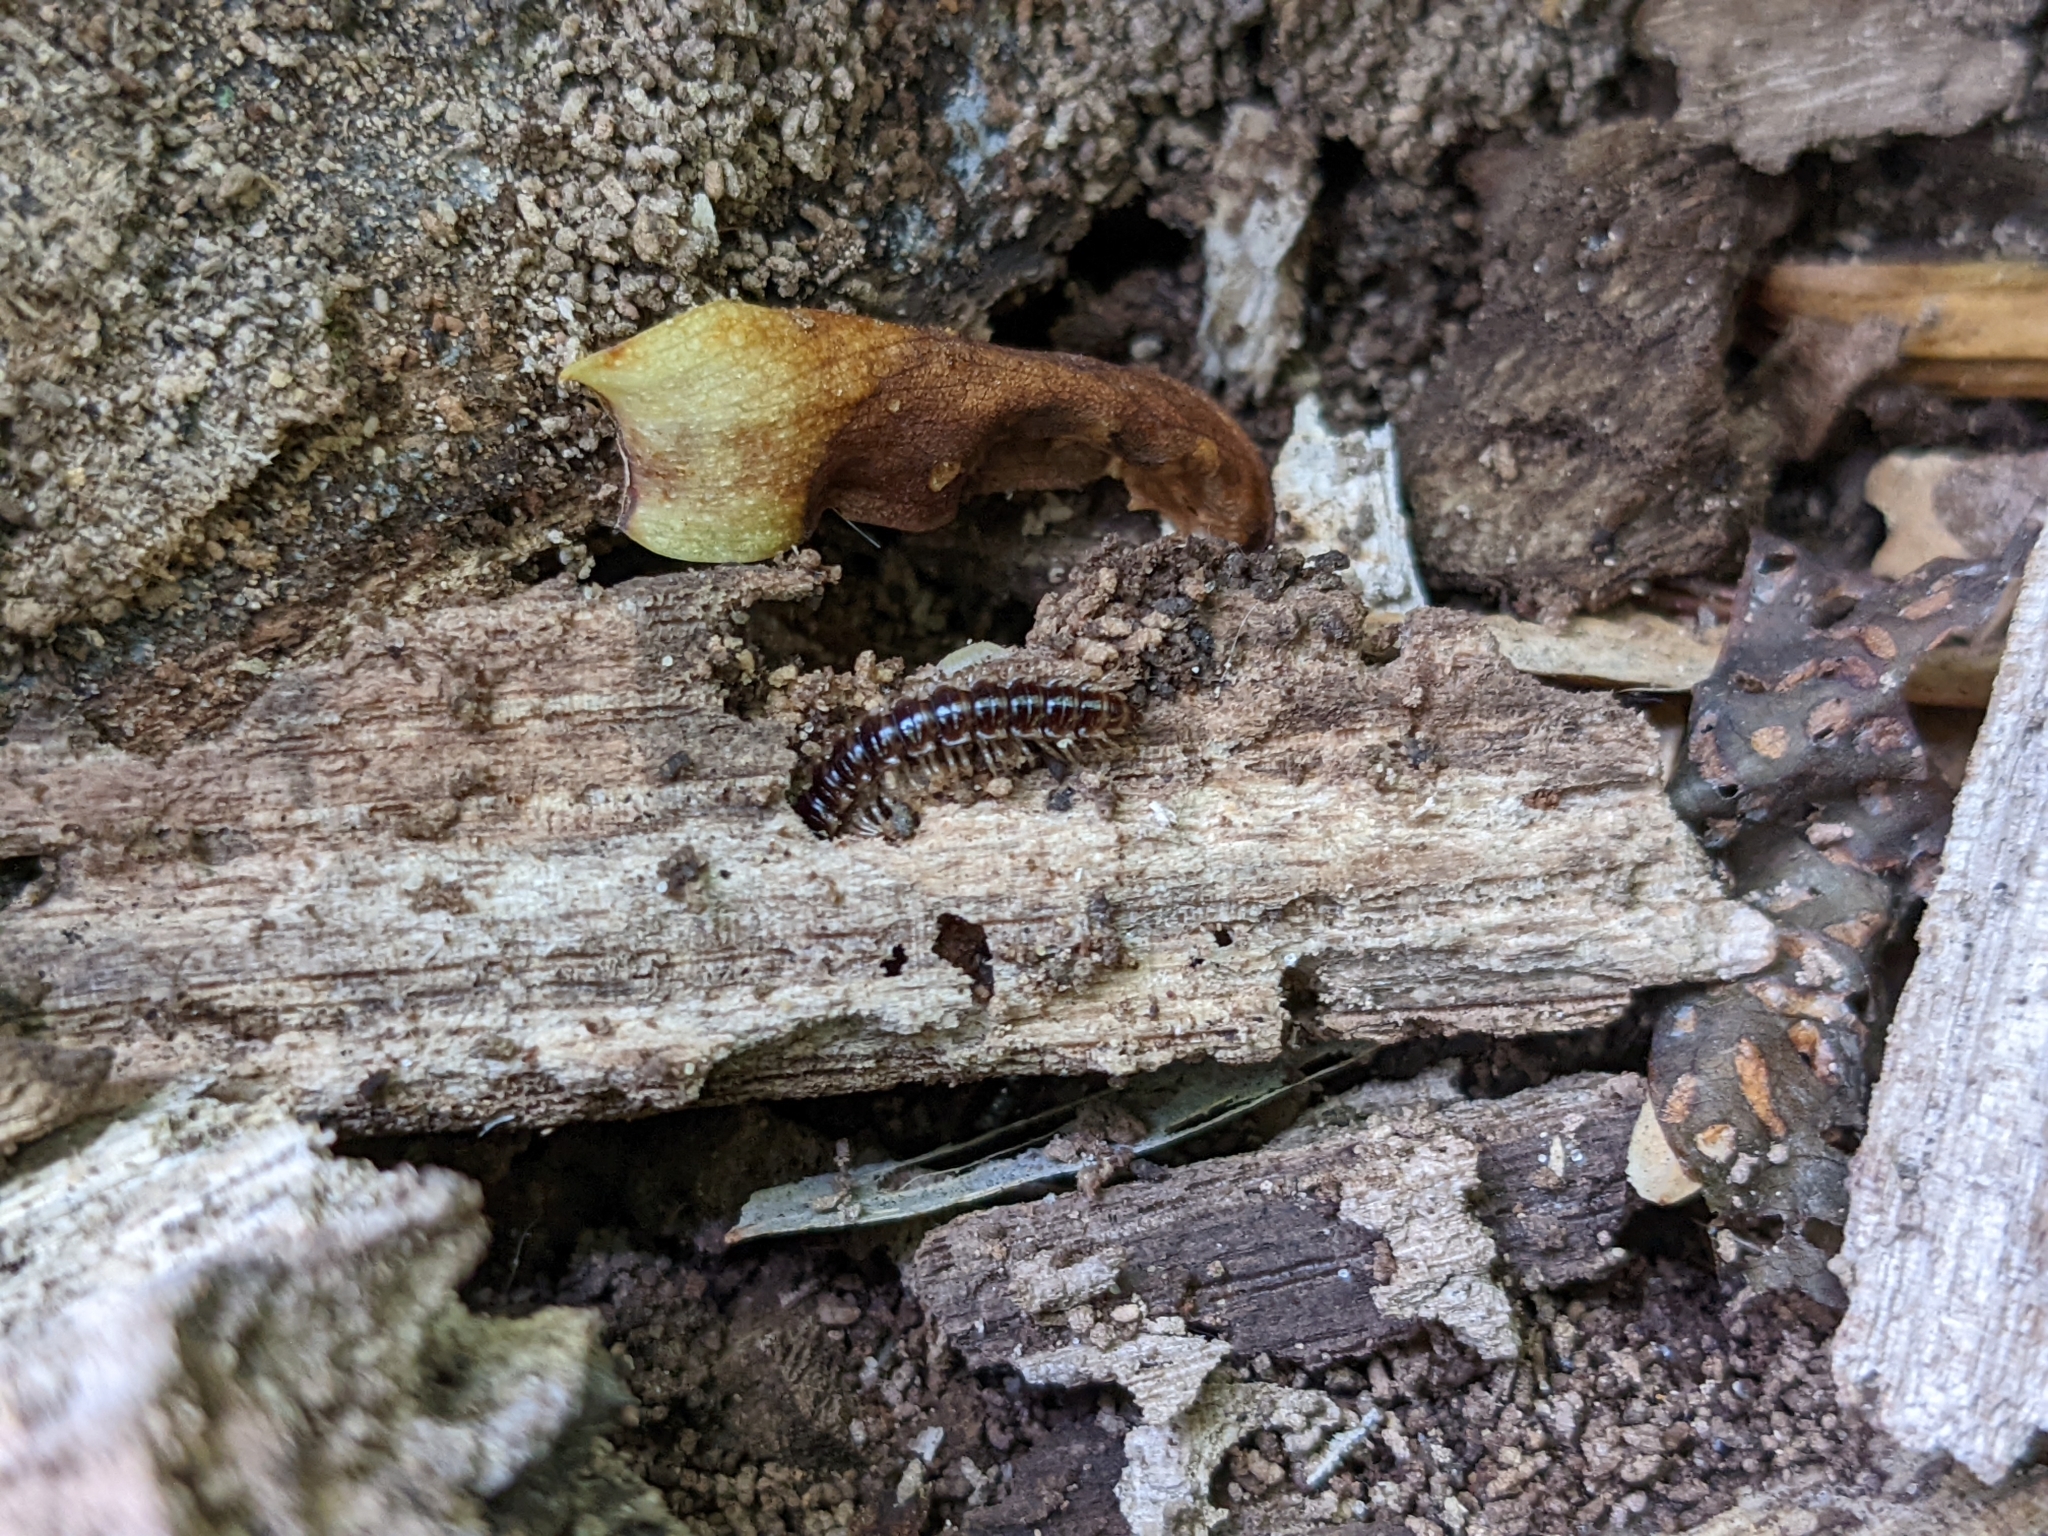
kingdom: Animalia
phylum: Arthropoda
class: Diplopoda
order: Polydesmida
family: Paradoxosomatidae
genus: Oxidus
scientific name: Oxidus gracilis
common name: Greenhouse millipede
